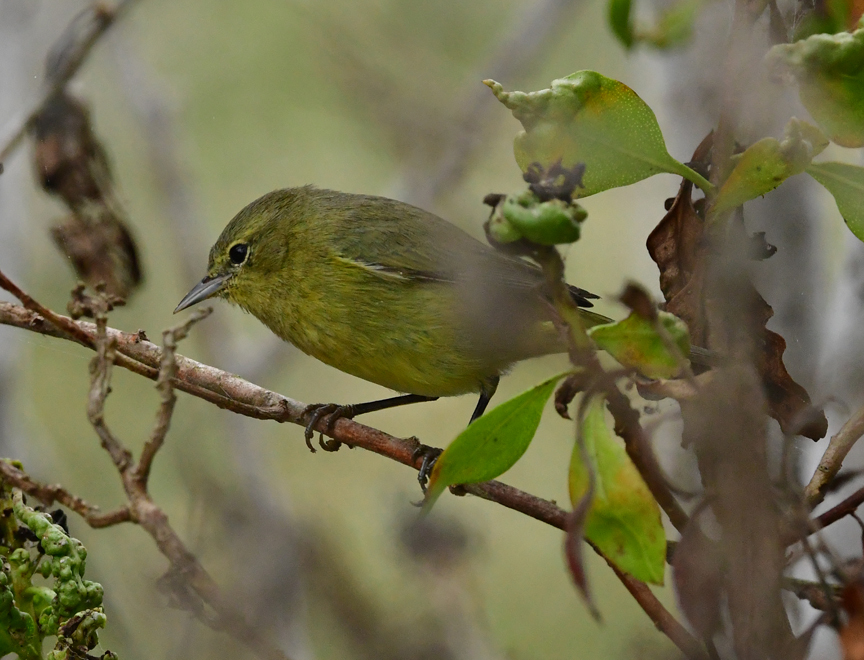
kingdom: Animalia
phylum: Chordata
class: Aves
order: Passeriformes
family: Parulidae
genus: Leiothlypis
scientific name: Leiothlypis celata
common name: Orange-crowned warbler
